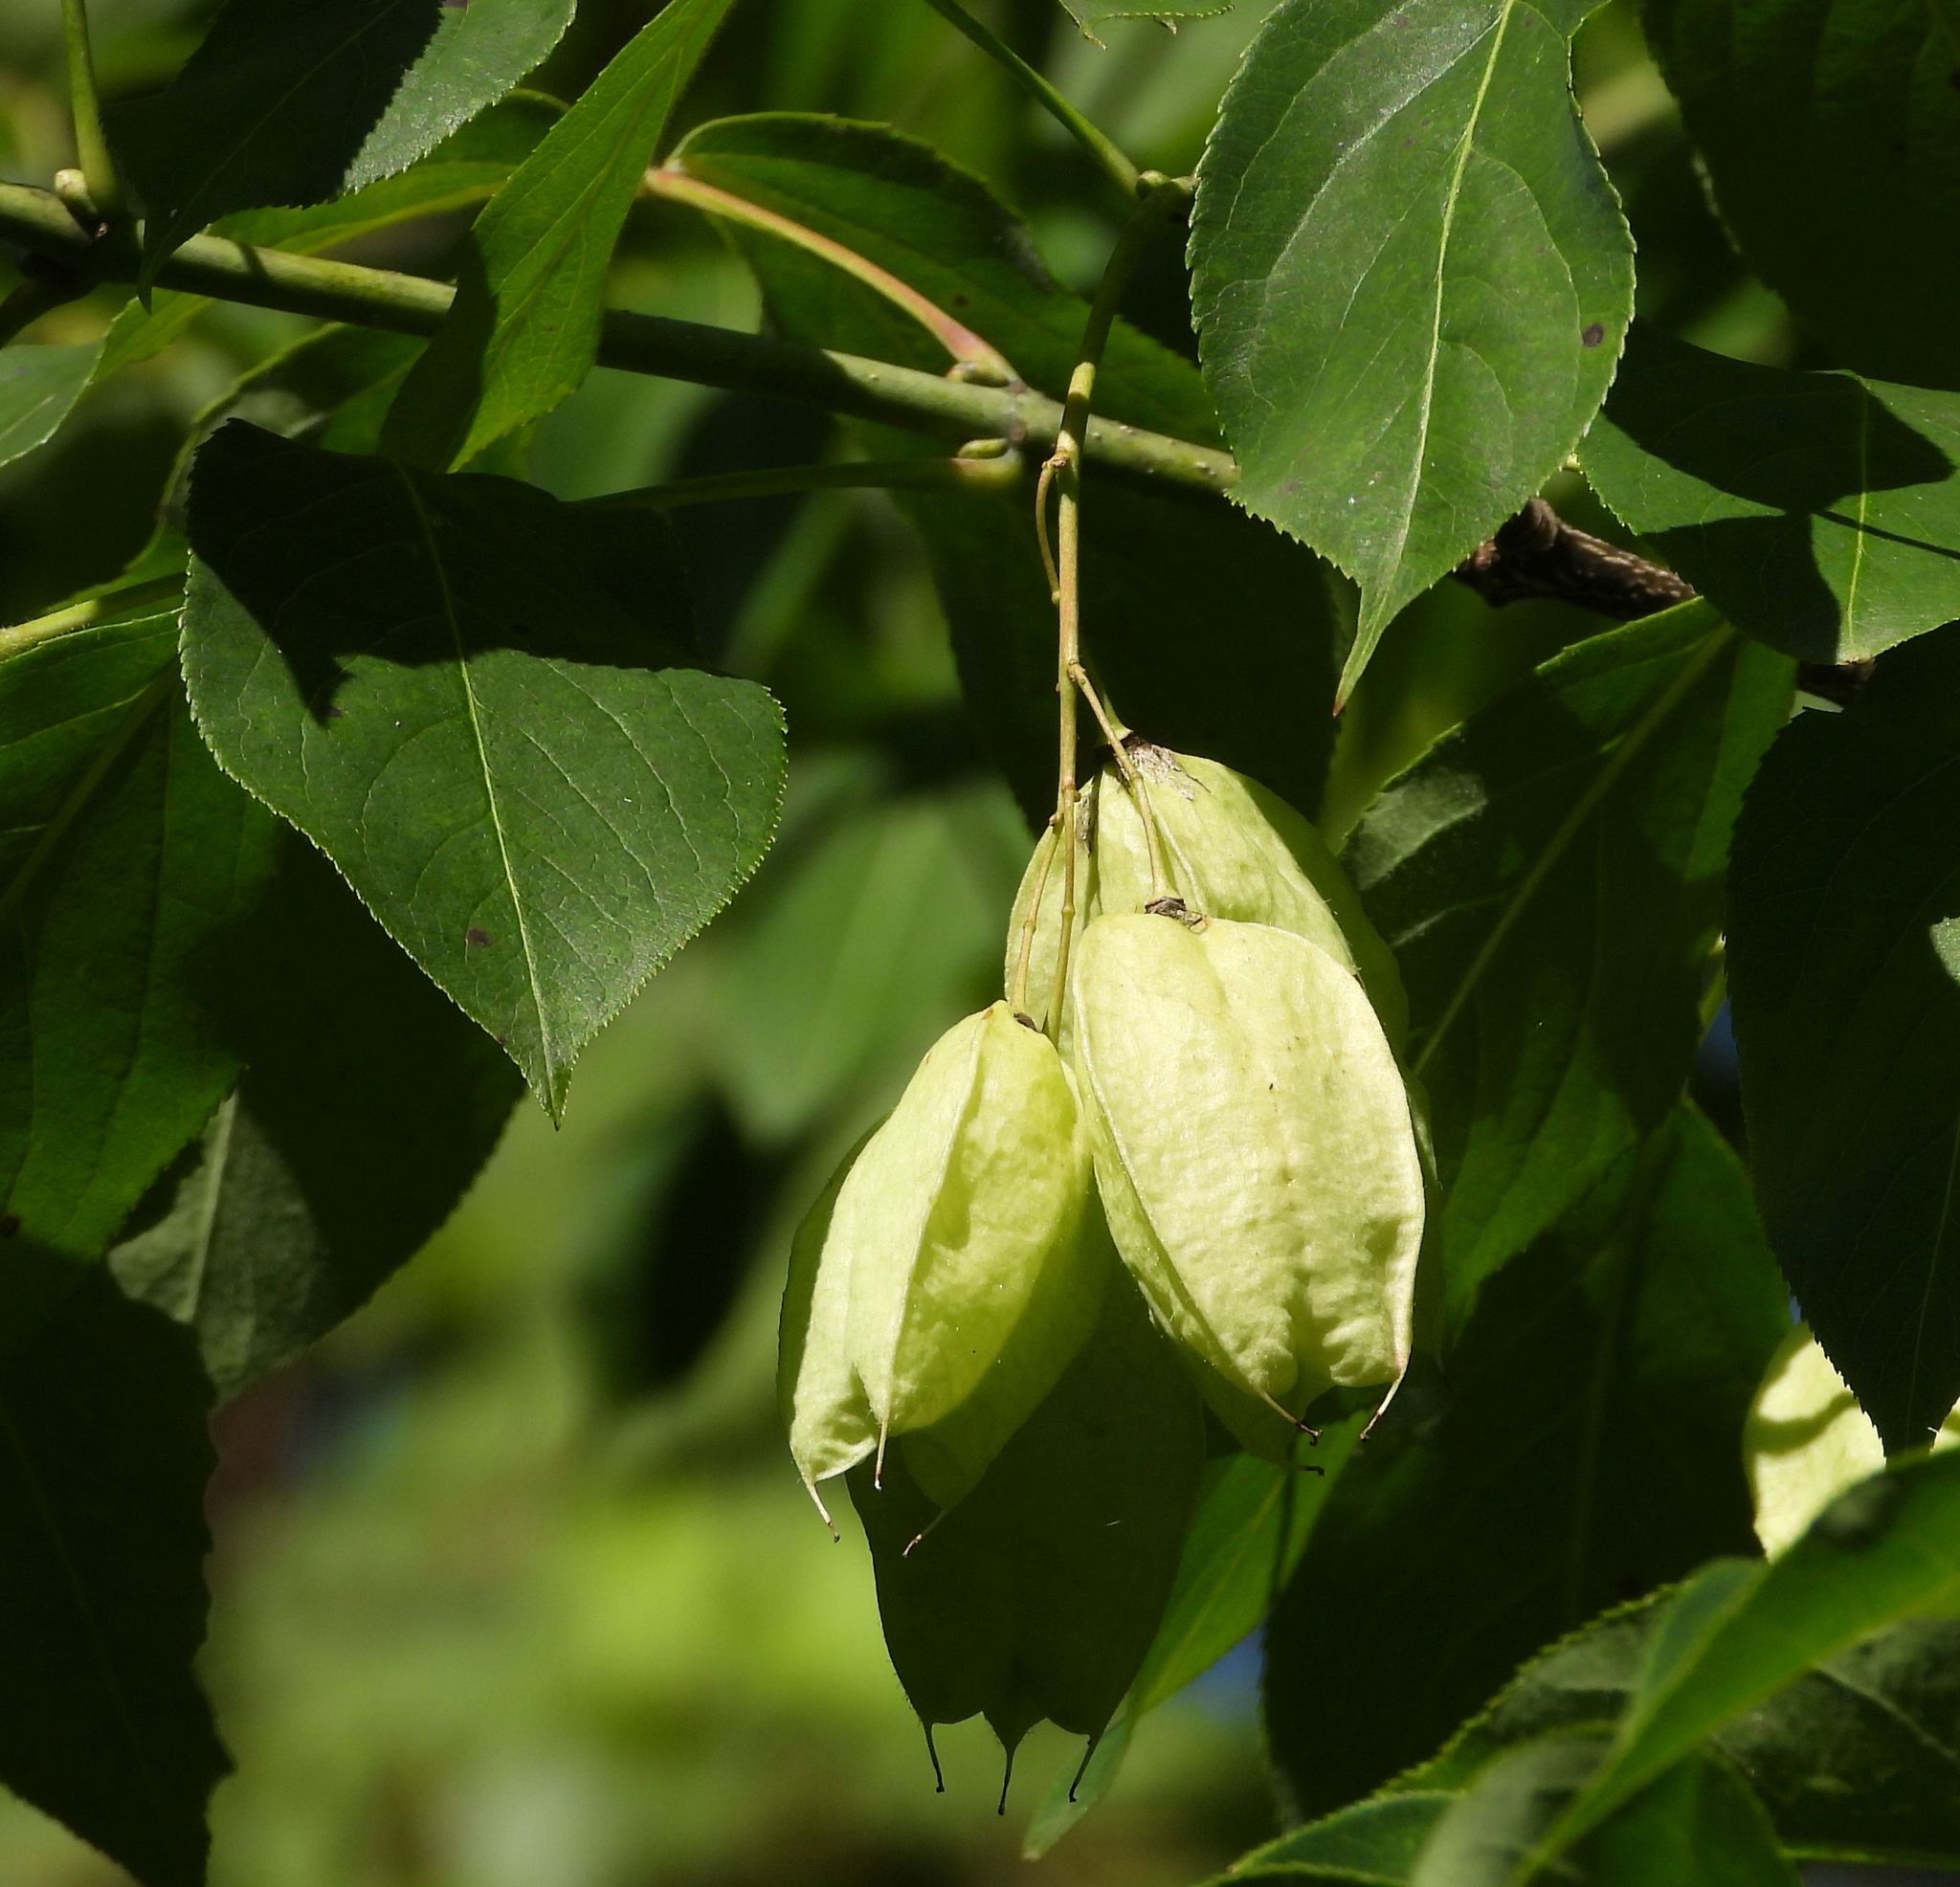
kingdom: Plantae
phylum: Tracheophyta
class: Magnoliopsida
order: Crossosomatales
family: Staphyleaceae
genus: Staphylea
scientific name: Staphylea trifolia
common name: American bladdernut
